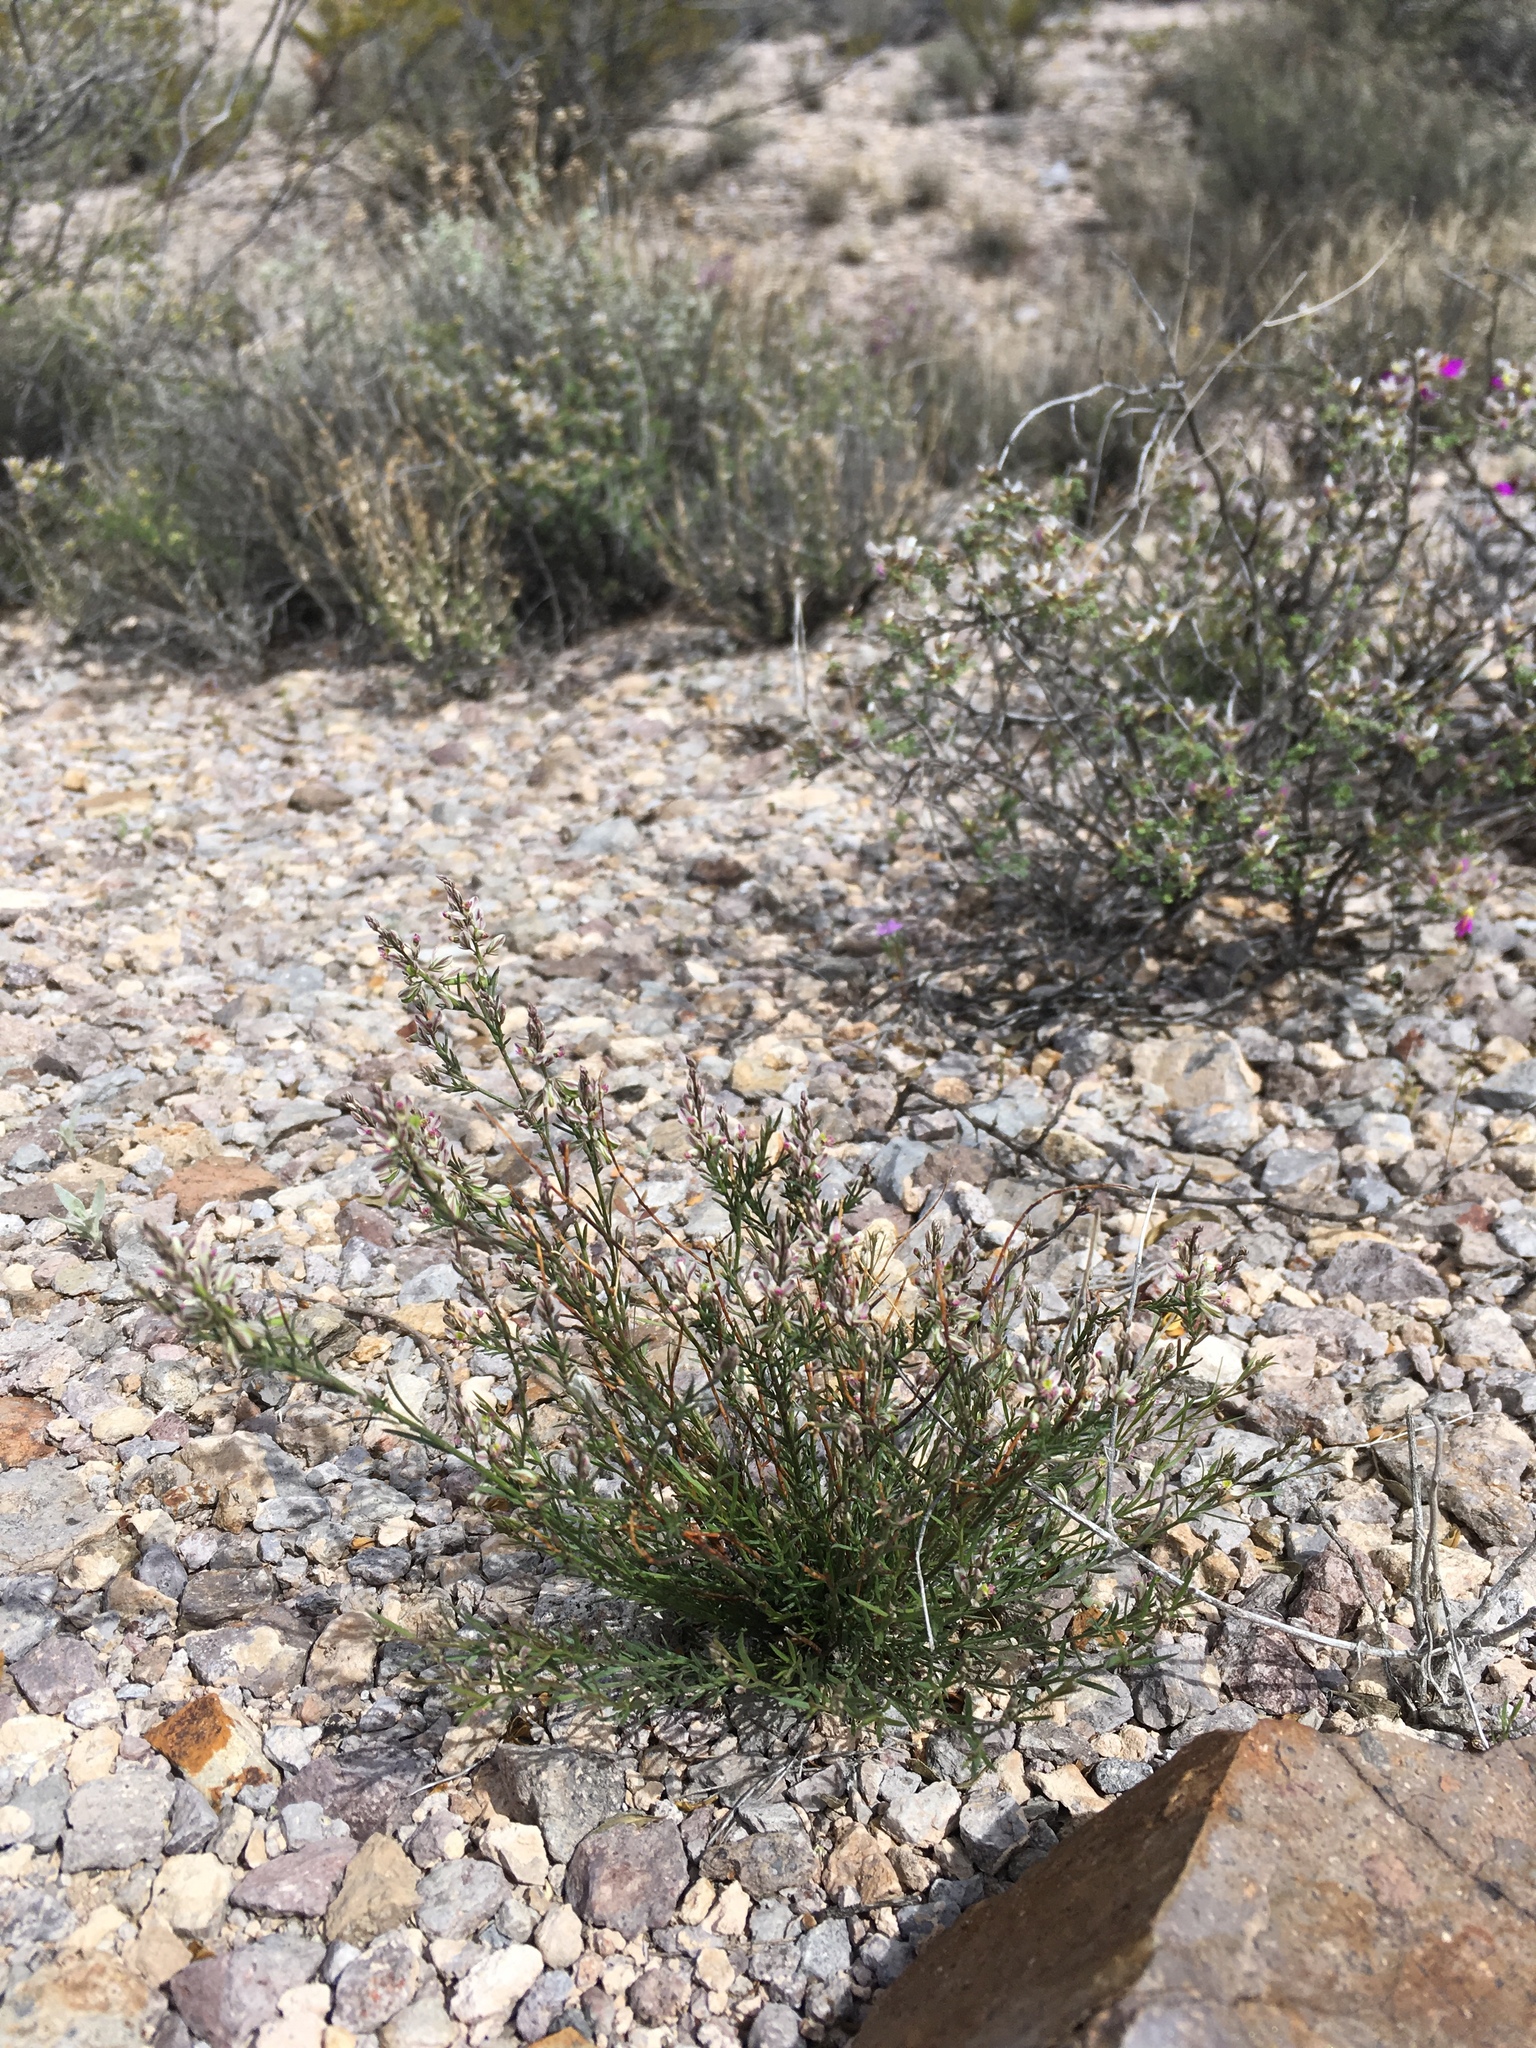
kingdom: Plantae
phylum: Tracheophyta
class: Magnoliopsida
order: Fabales
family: Polygalaceae
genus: Polygala
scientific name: Polygala scoparioides
